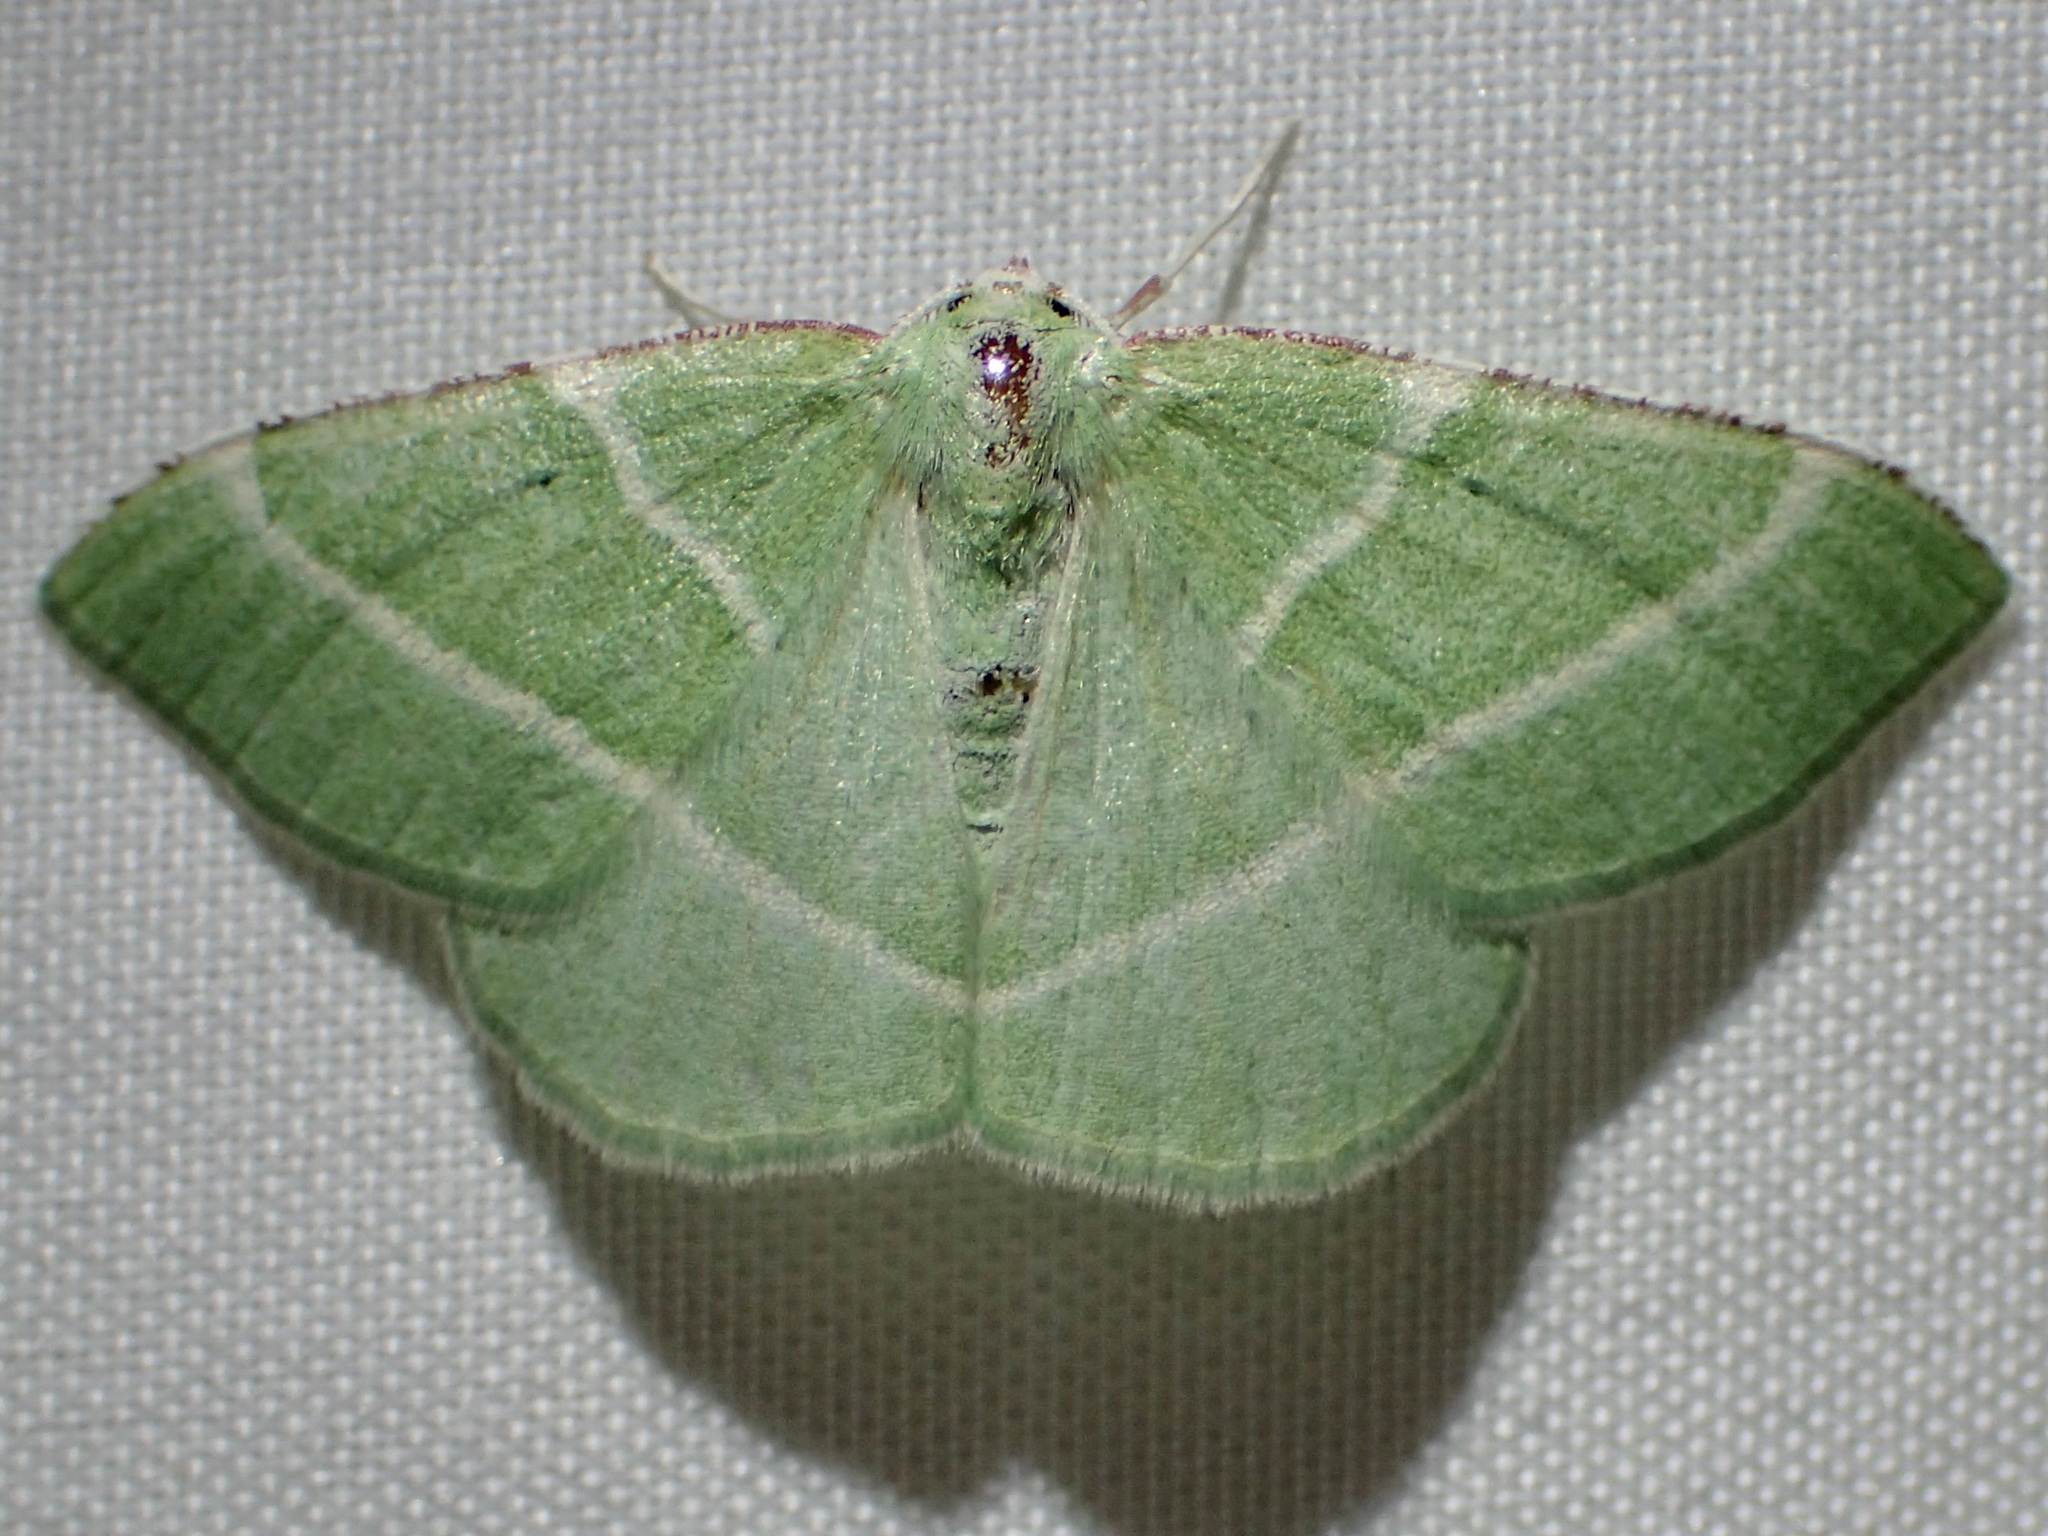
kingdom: Animalia
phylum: Arthropoda
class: Insecta
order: Lepidoptera
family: Geometridae
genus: Dichordophora
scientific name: Dichordophora phoenix
